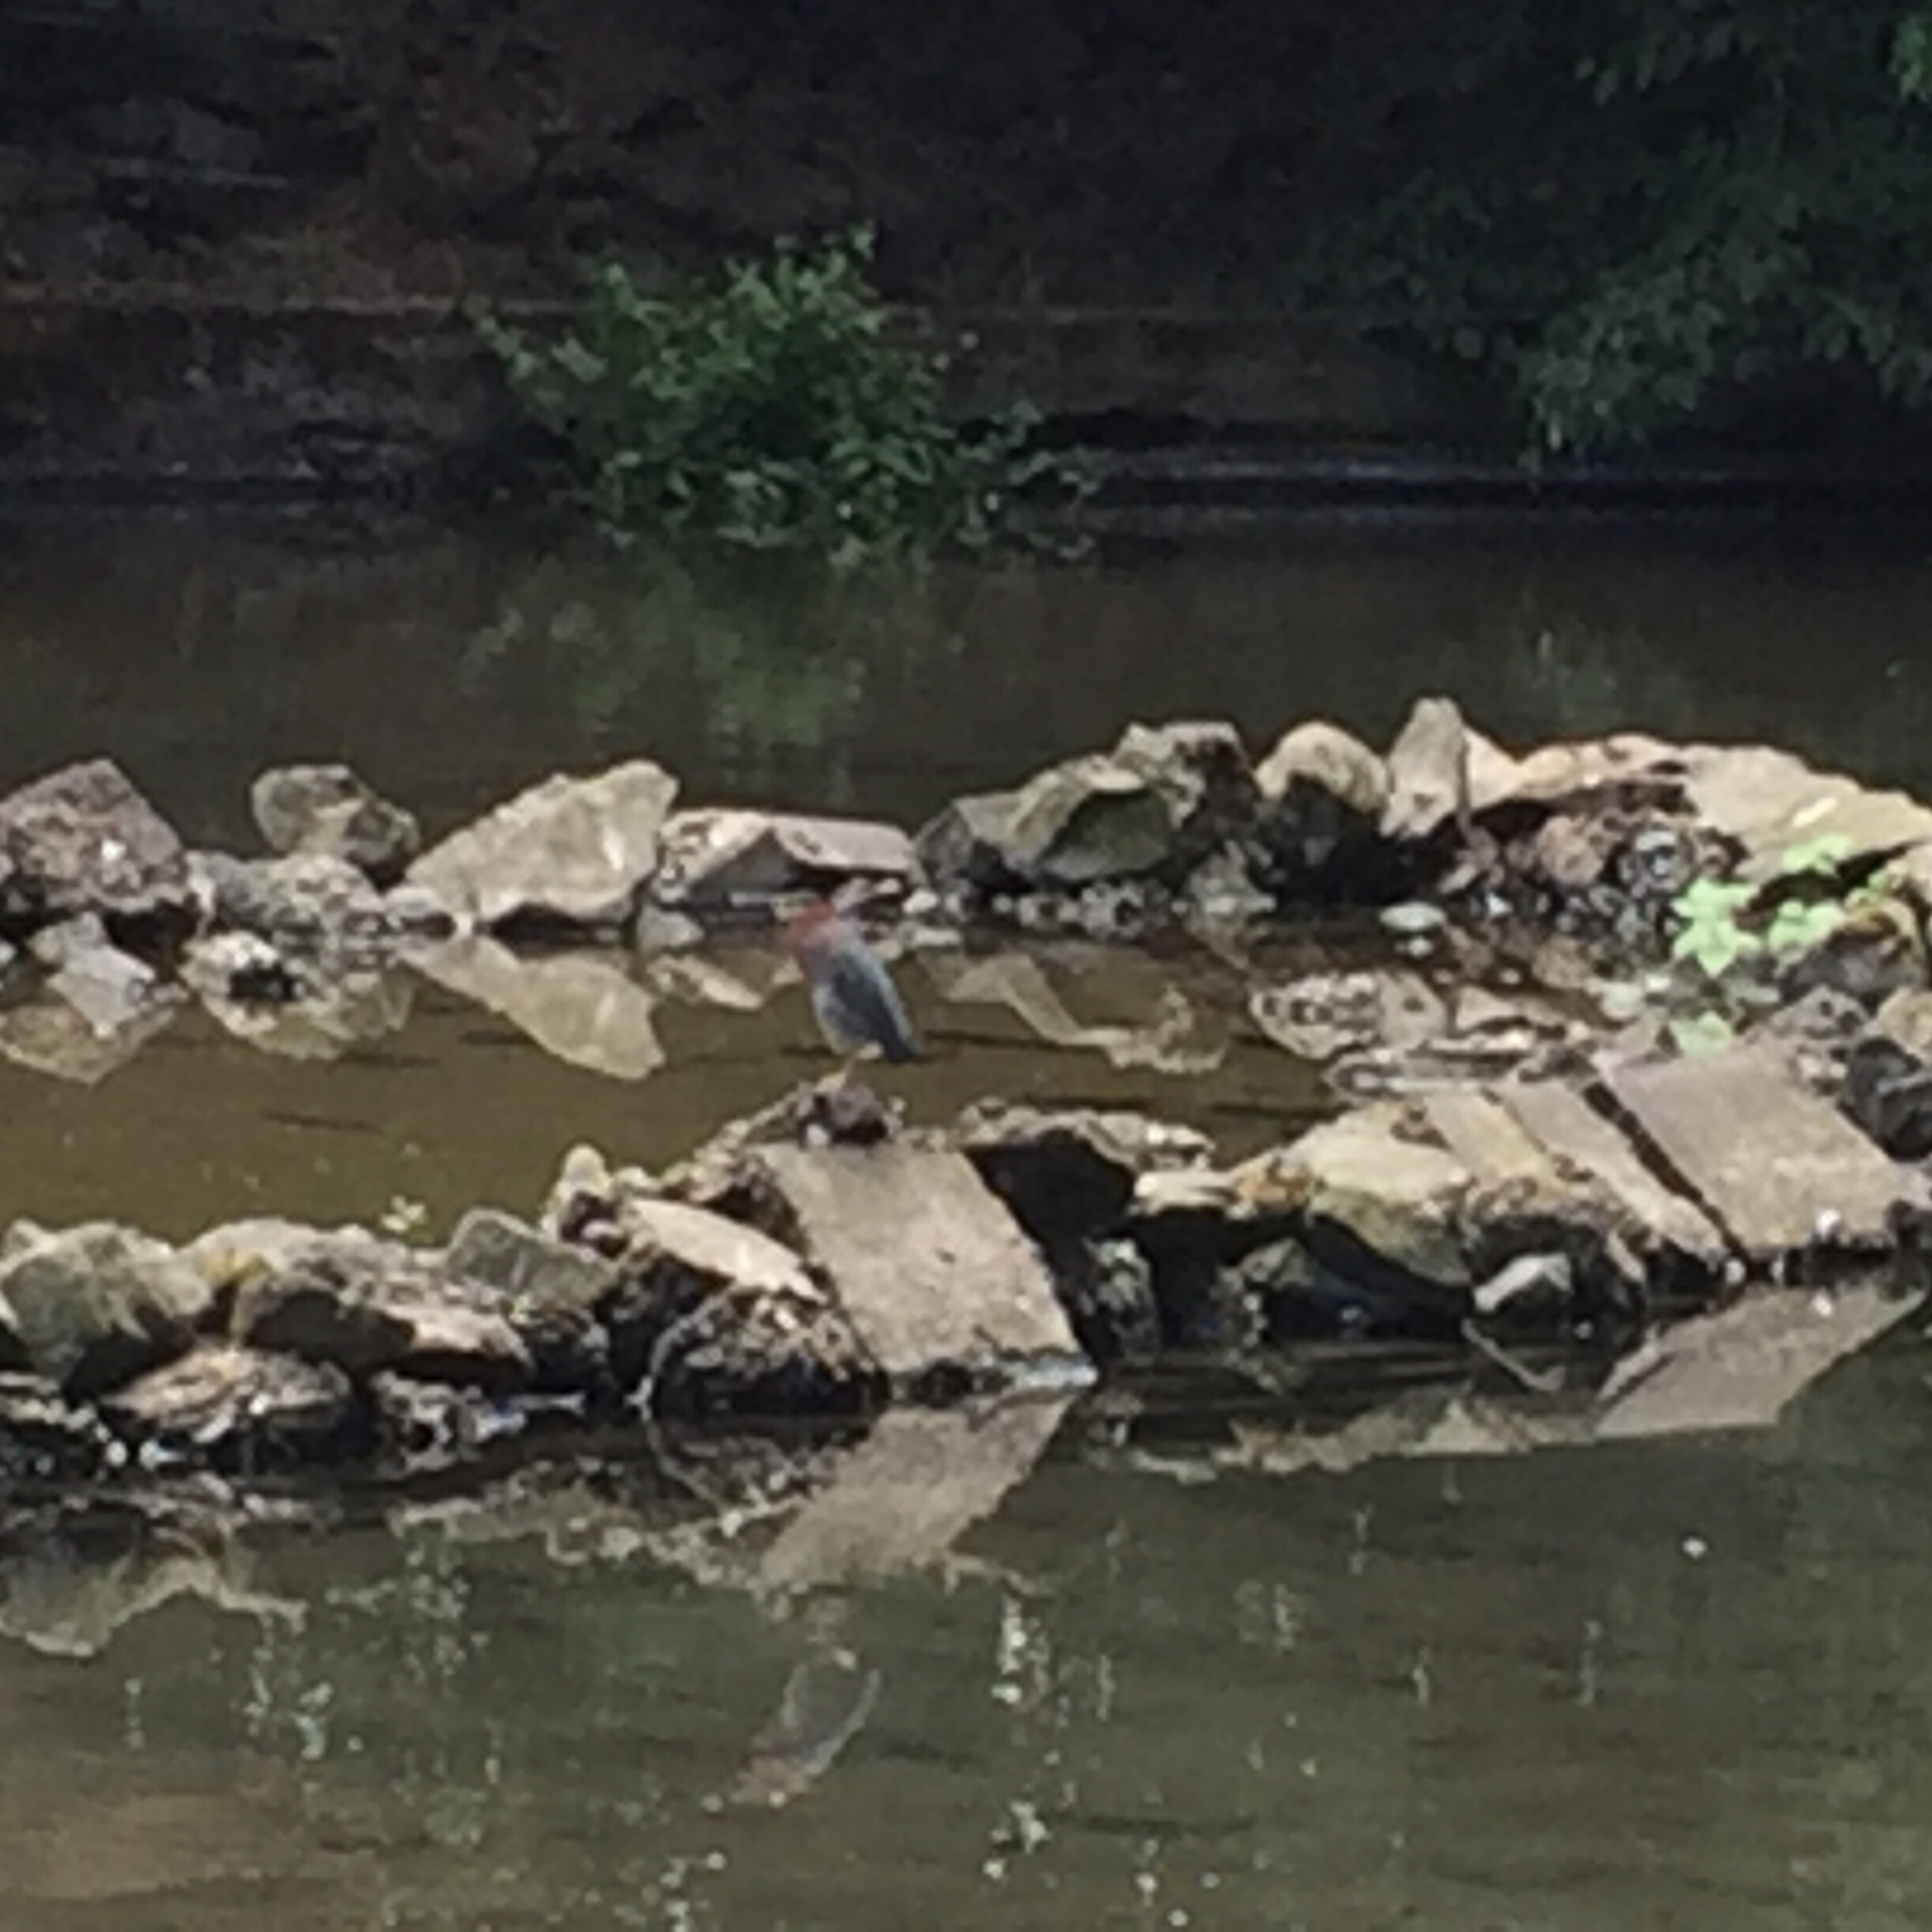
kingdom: Animalia
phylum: Chordata
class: Aves
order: Pelecaniformes
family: Ardeidae
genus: Butorides
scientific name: Butorides virescens
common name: Green heron
